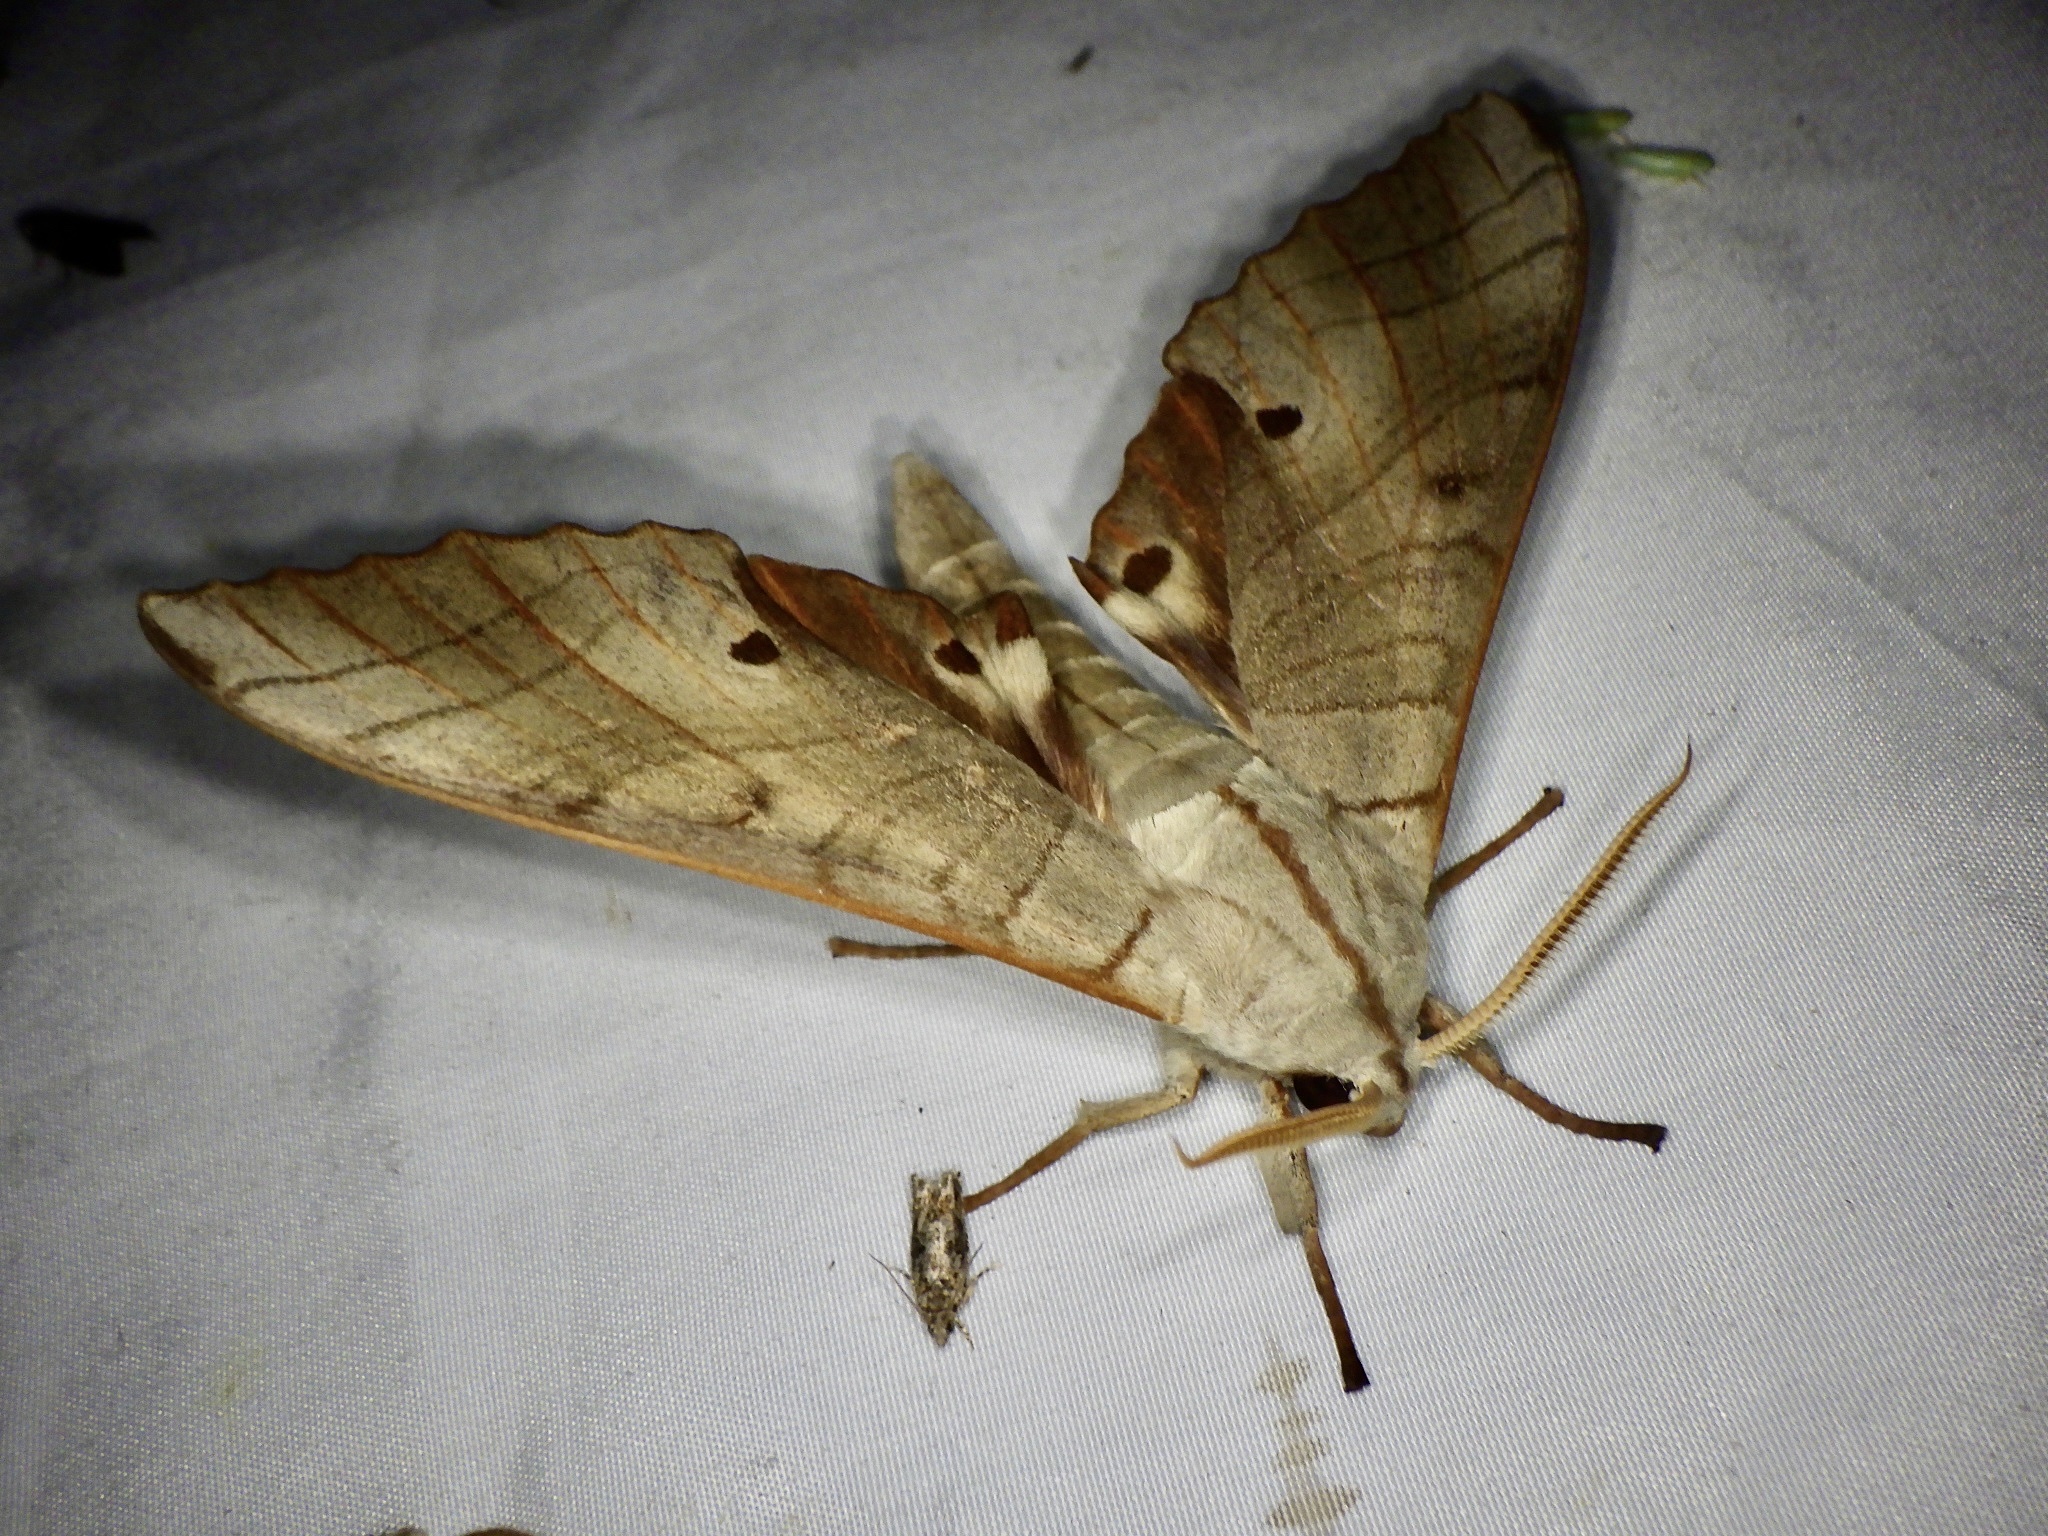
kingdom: Animalia
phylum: Arthropoda
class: Insecta
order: Lepidoptera
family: Sphingidae
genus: Marumba
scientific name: Marumba sperchius
